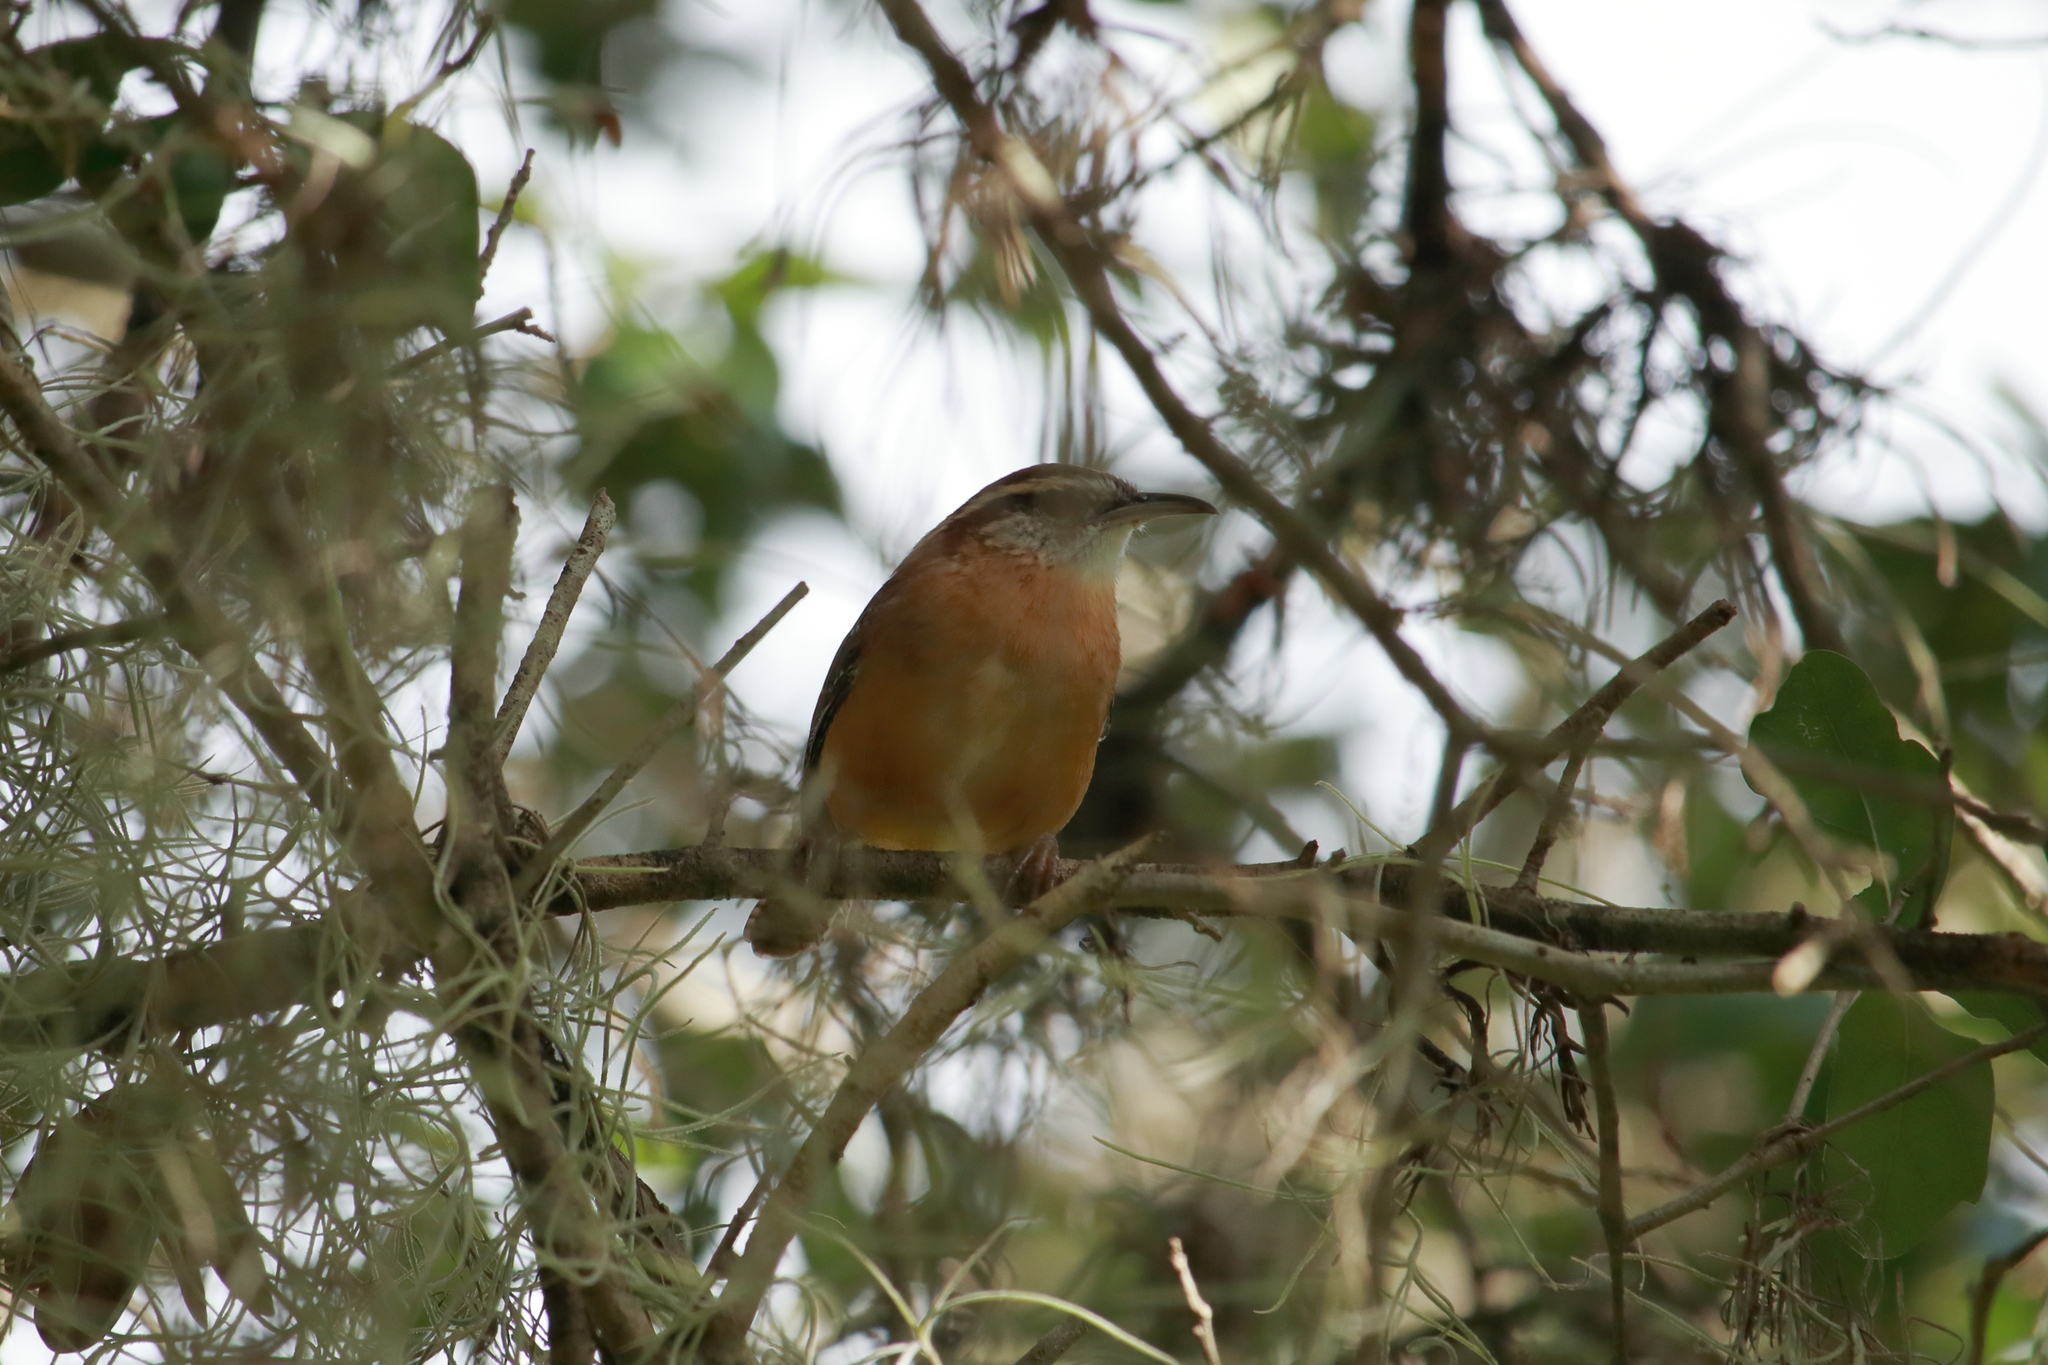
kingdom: Animalia
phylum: Chordata
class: Aves
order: Passeriformes
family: Troglodytidae
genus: Thryothorus
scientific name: Thryothorus ludovicianus
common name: Carolina wren
